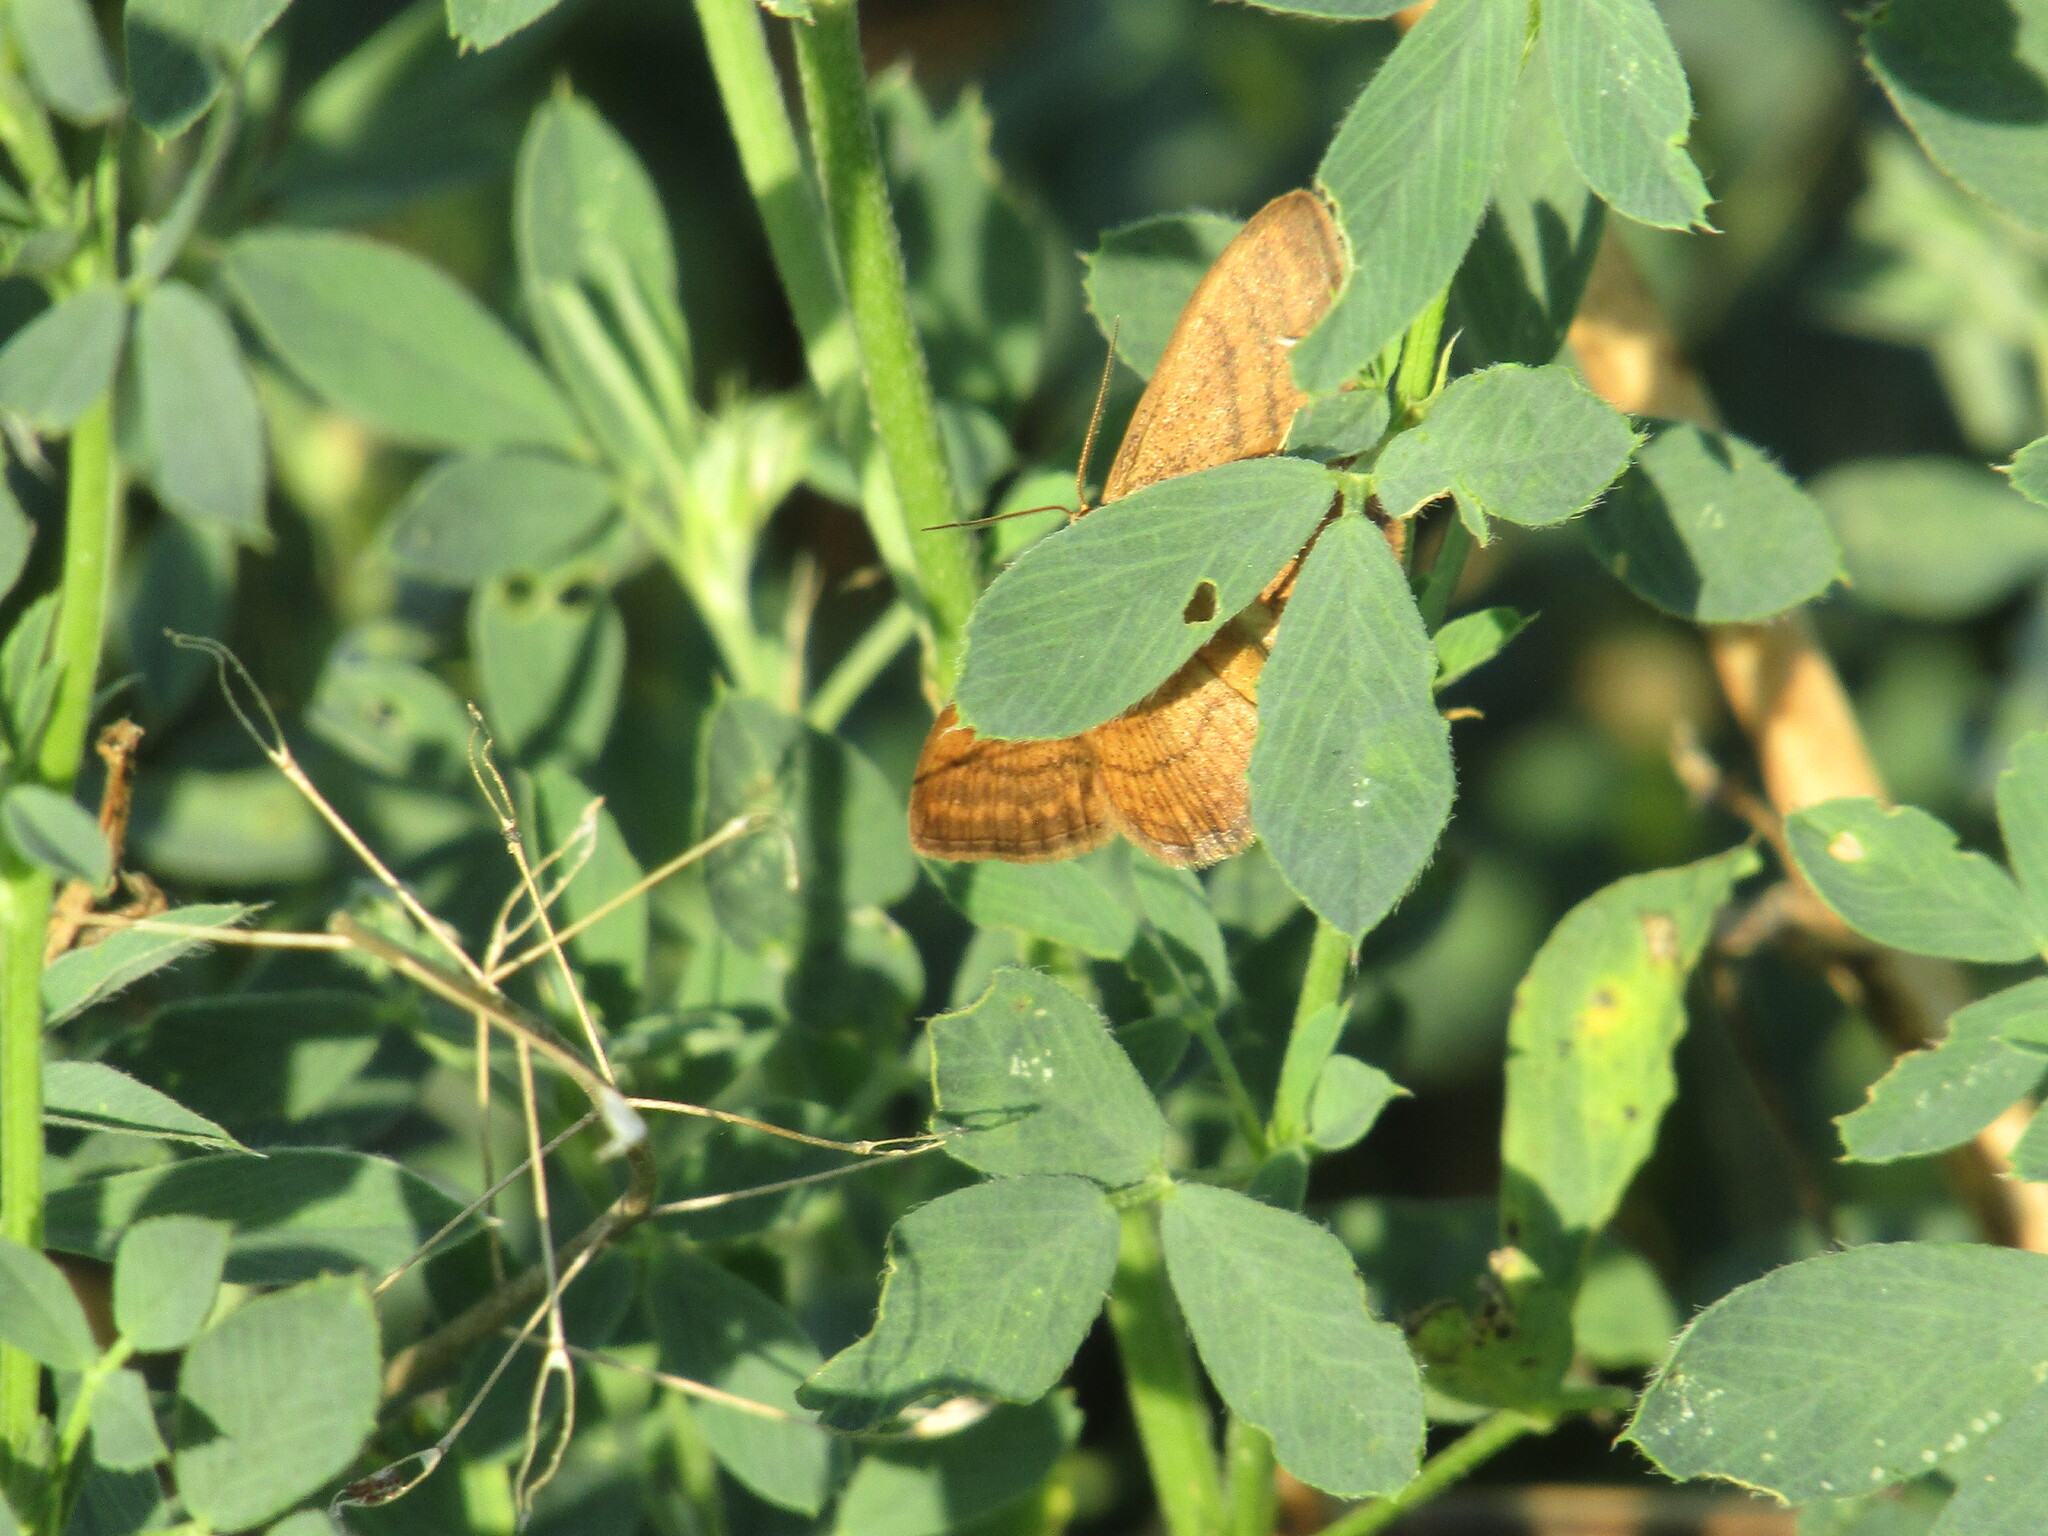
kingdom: Animalia
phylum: Arthropoda
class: Insecta
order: Lepidoptera
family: Geometridae
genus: Idaea
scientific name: Idaea ochrata
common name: Bright wave
